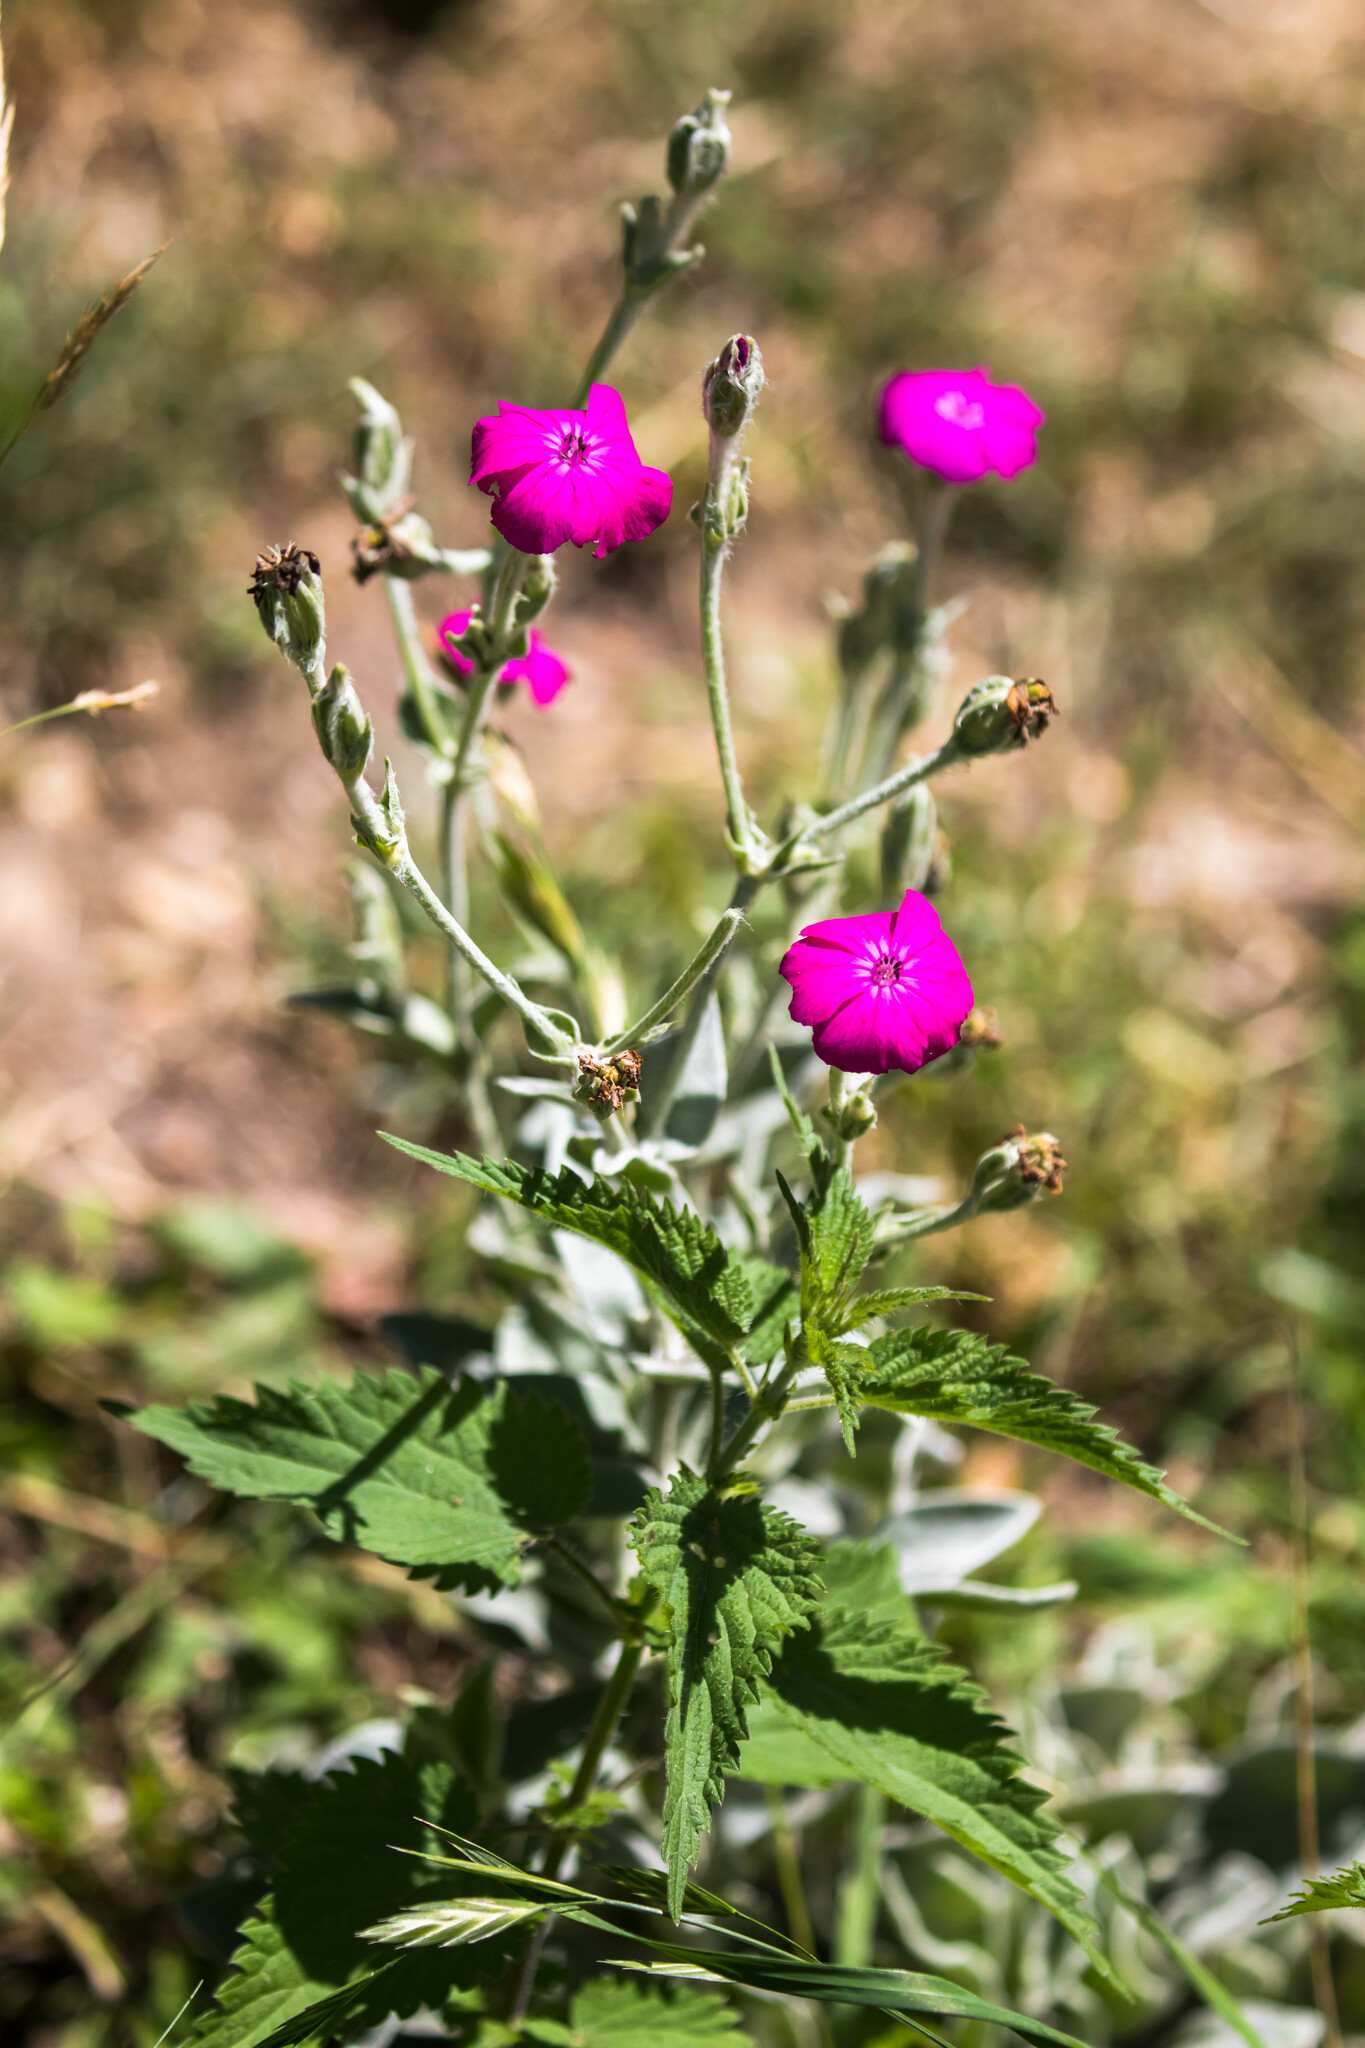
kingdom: Plantae
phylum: Tracheophyta
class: Magnoliopsida
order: Caryophyllales
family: Caryophyllaceae
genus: Silene
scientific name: Silene coronaria
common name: Rose campion
